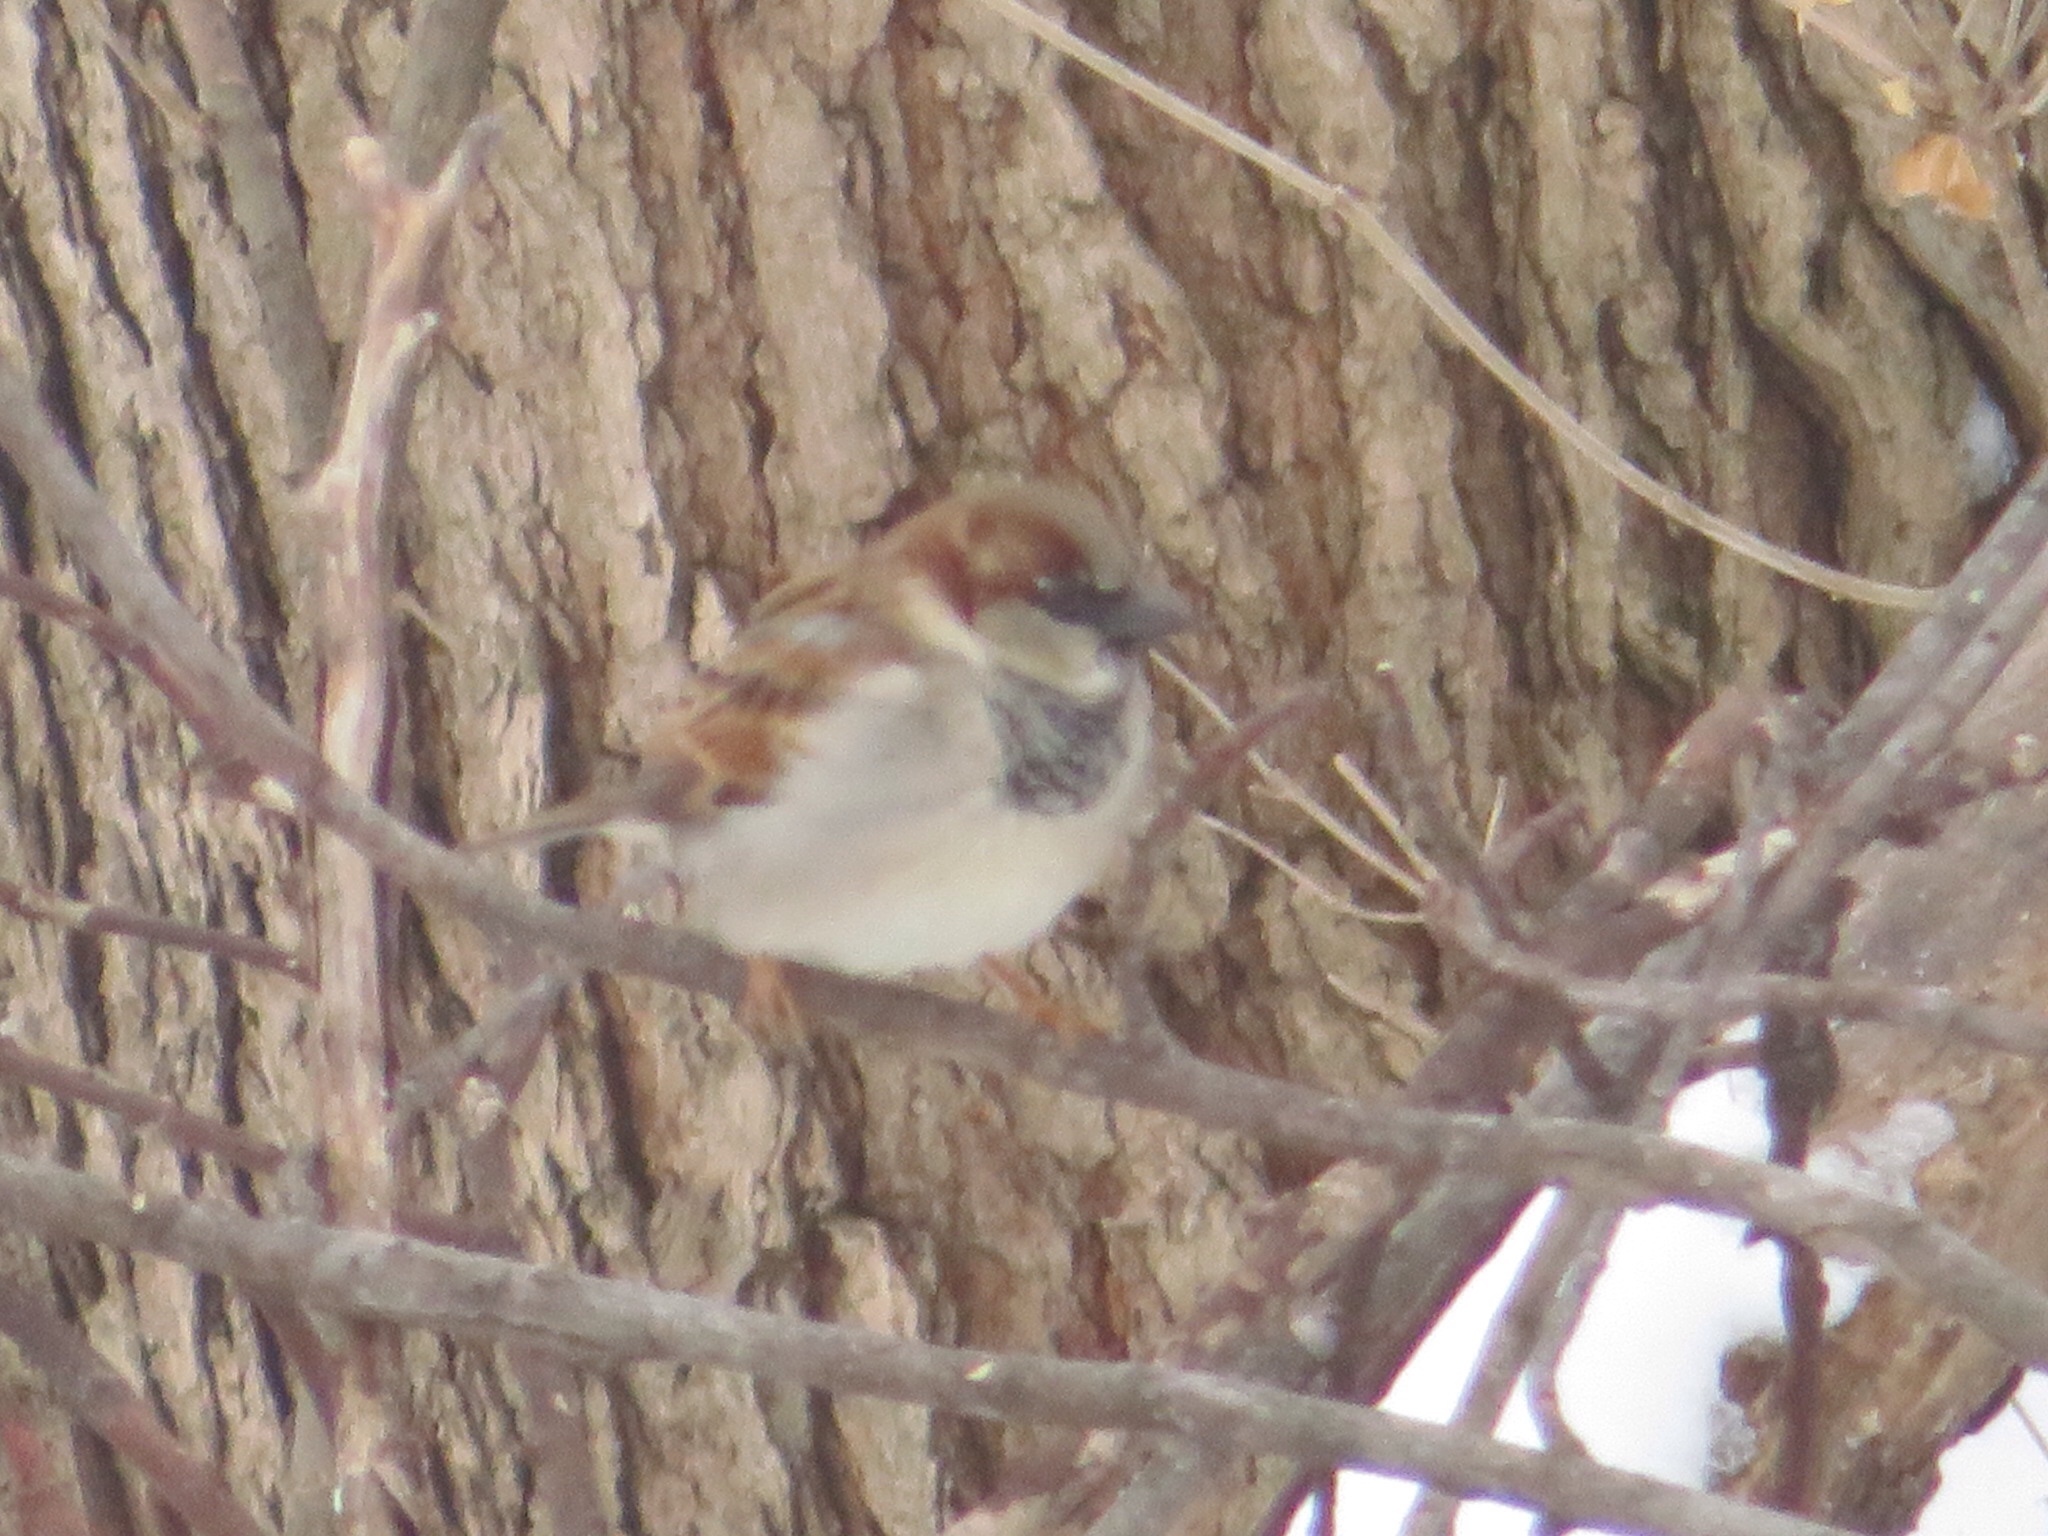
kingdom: Animalia
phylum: Chordata
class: Aves
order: Passeriformes
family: Passeridae
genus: Passer
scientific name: Passer domesticus
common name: House sparrow
